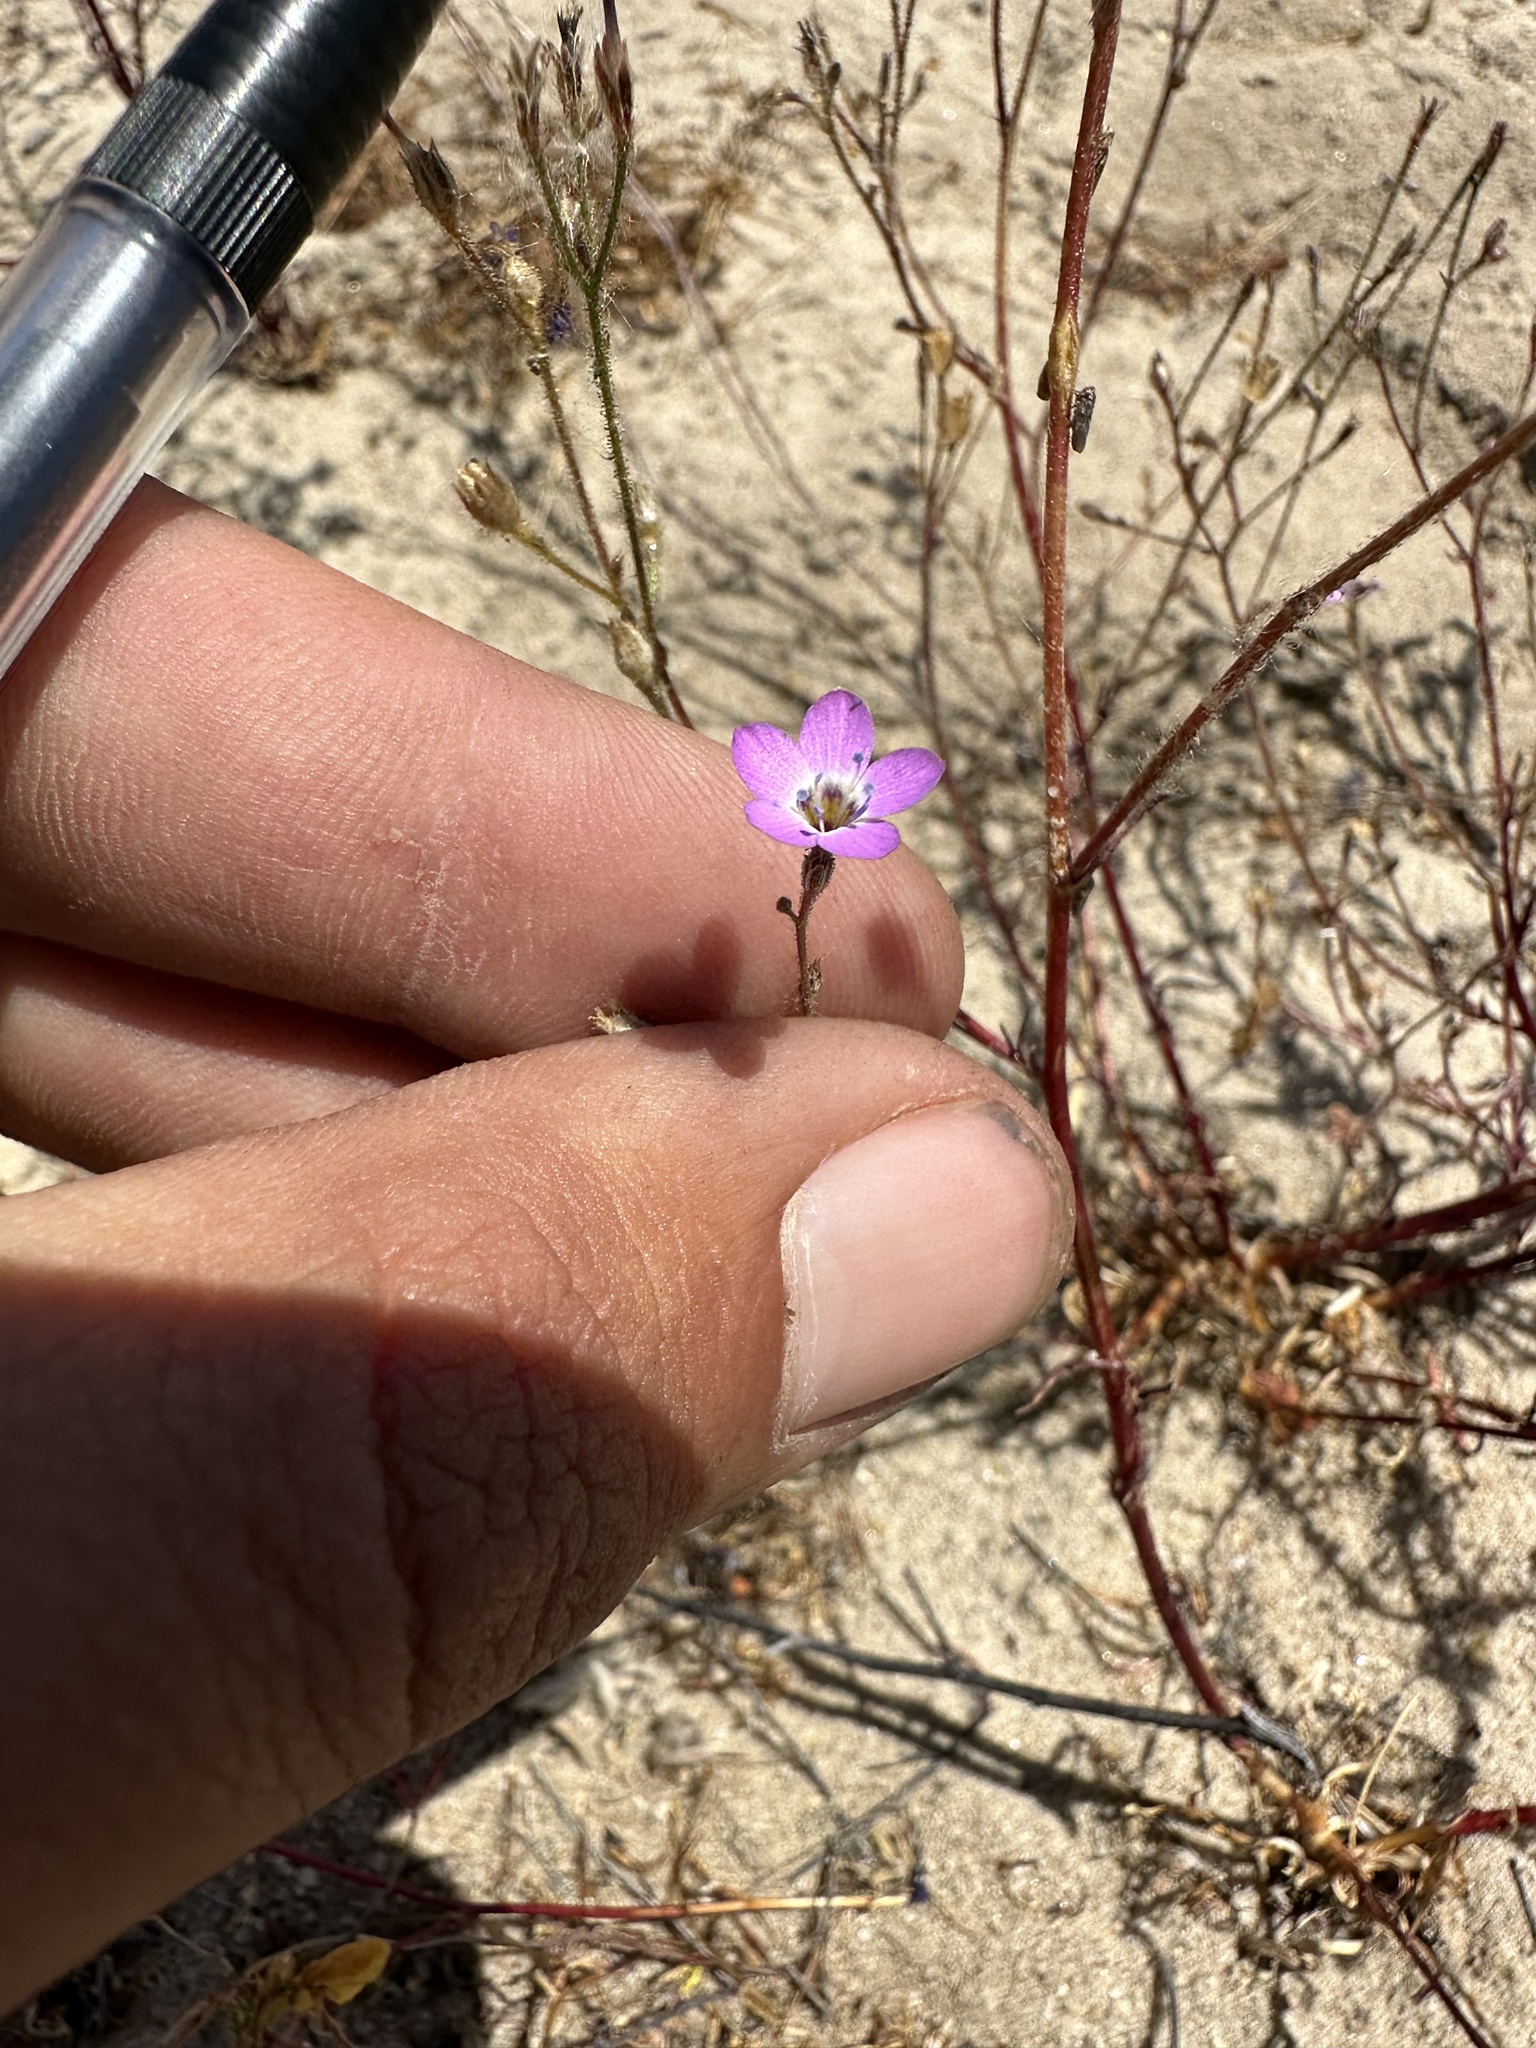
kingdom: Plantae
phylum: Tracheophyta
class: Magnoliopsida
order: Ericales
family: Polemoniaceae
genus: Gilia
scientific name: Gilia tenuiflora
